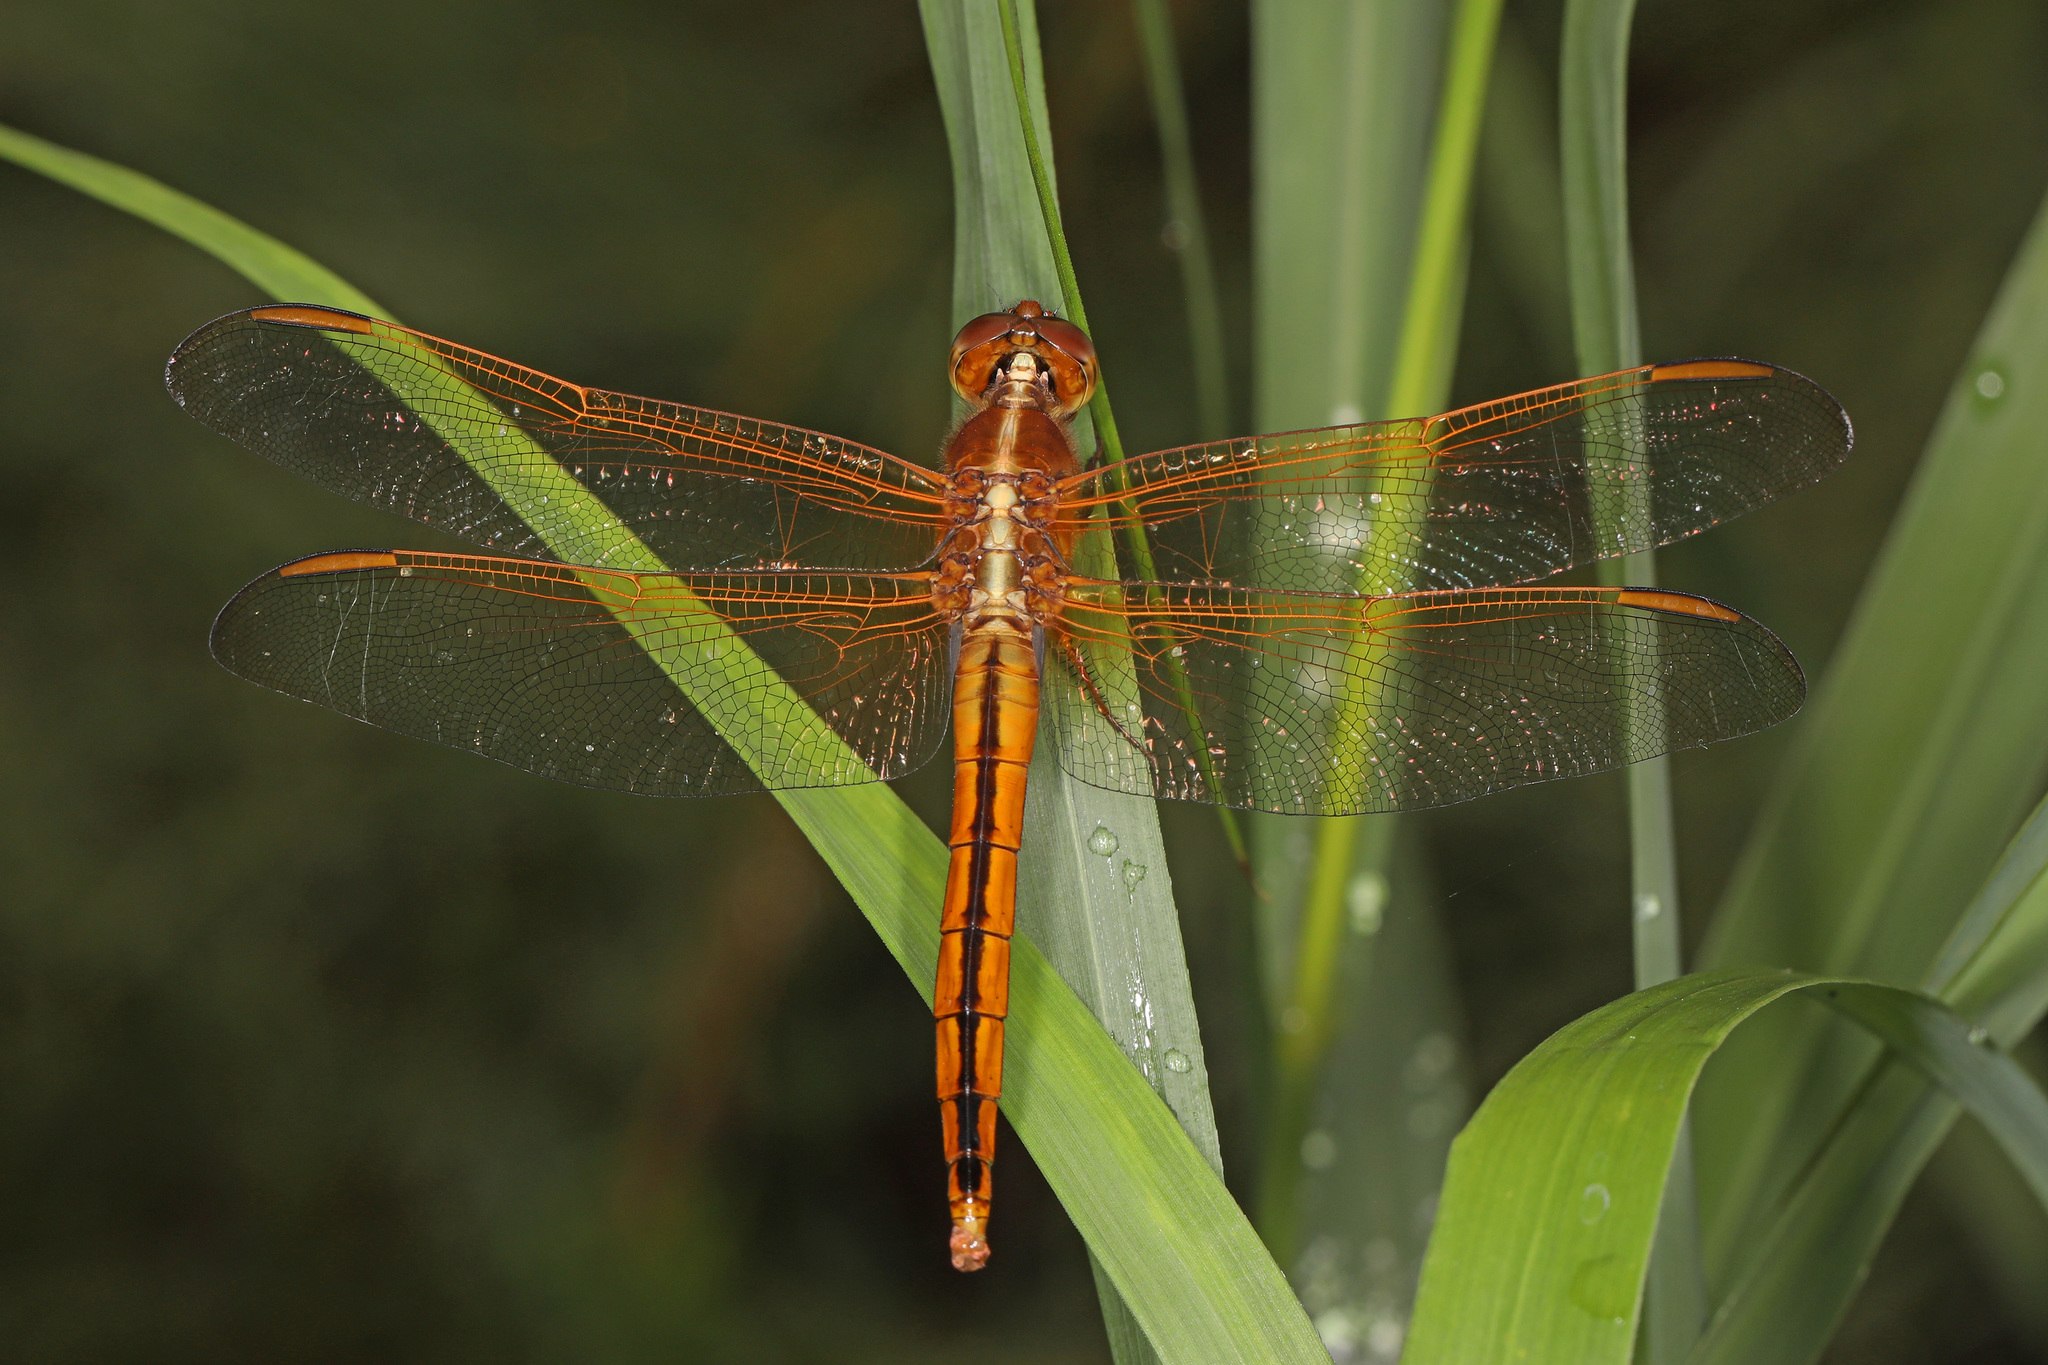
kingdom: Animalia
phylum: Arthropoda
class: Insecta
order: Odonata
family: Libellulidae
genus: Libellula
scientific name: Libellula needhami
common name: Needham's skimmer
